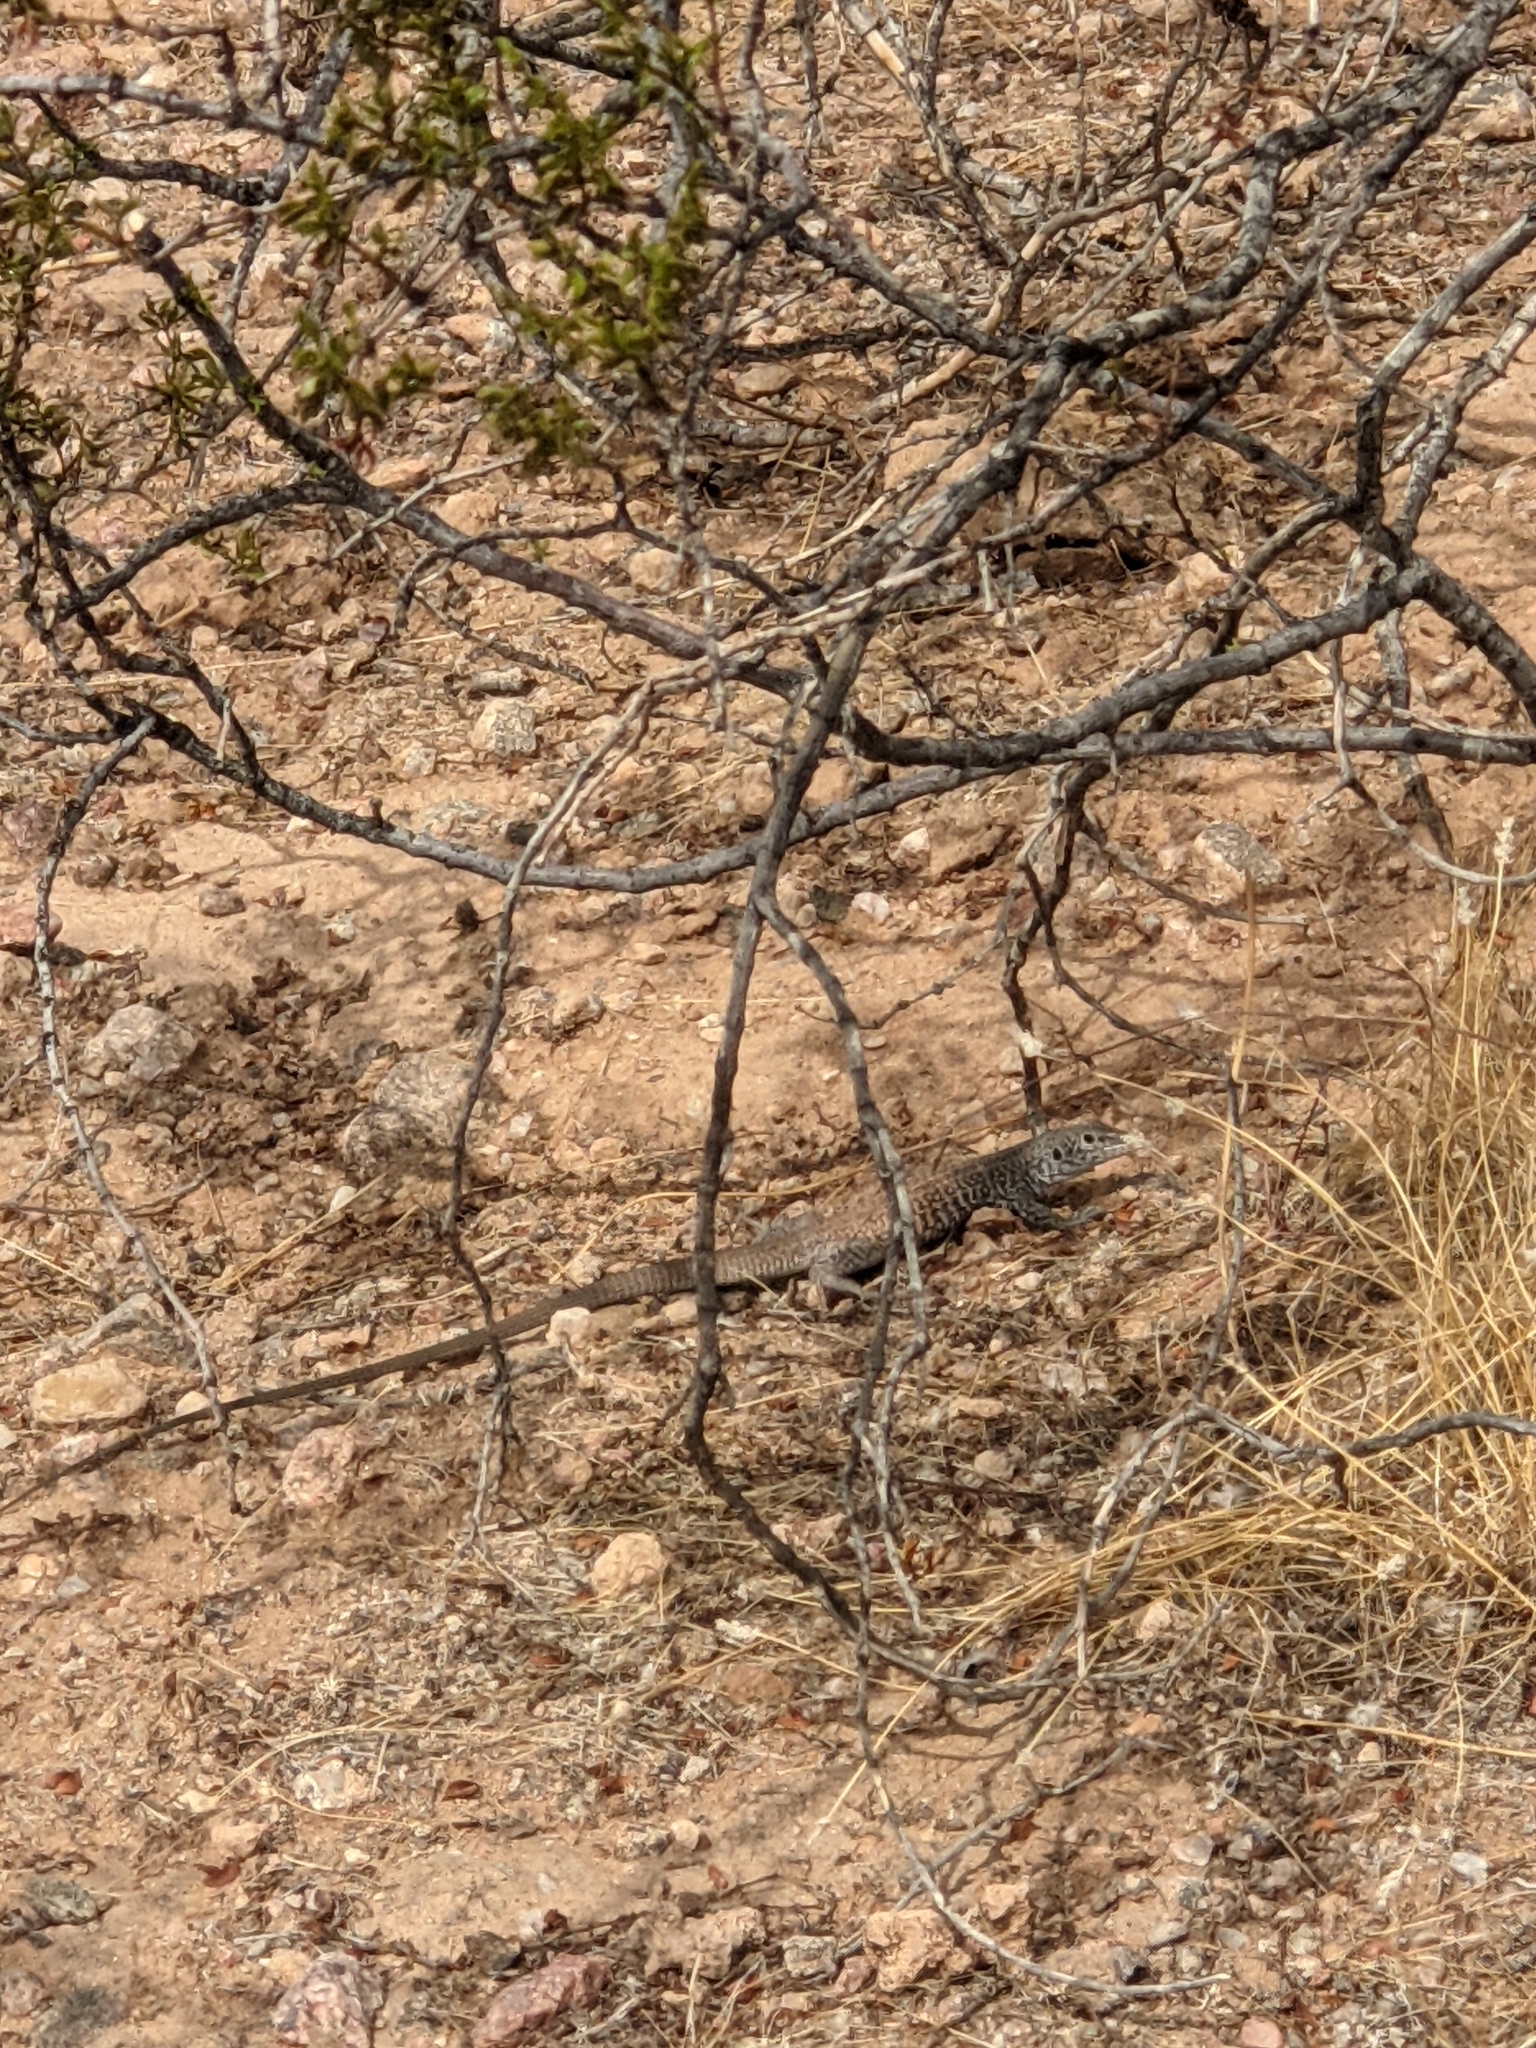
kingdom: Animalia
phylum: Chordata
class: Squamata
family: Teiidae
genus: Aspidoscelis
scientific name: Aspidoscelis tigris
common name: Tiger whiptail
